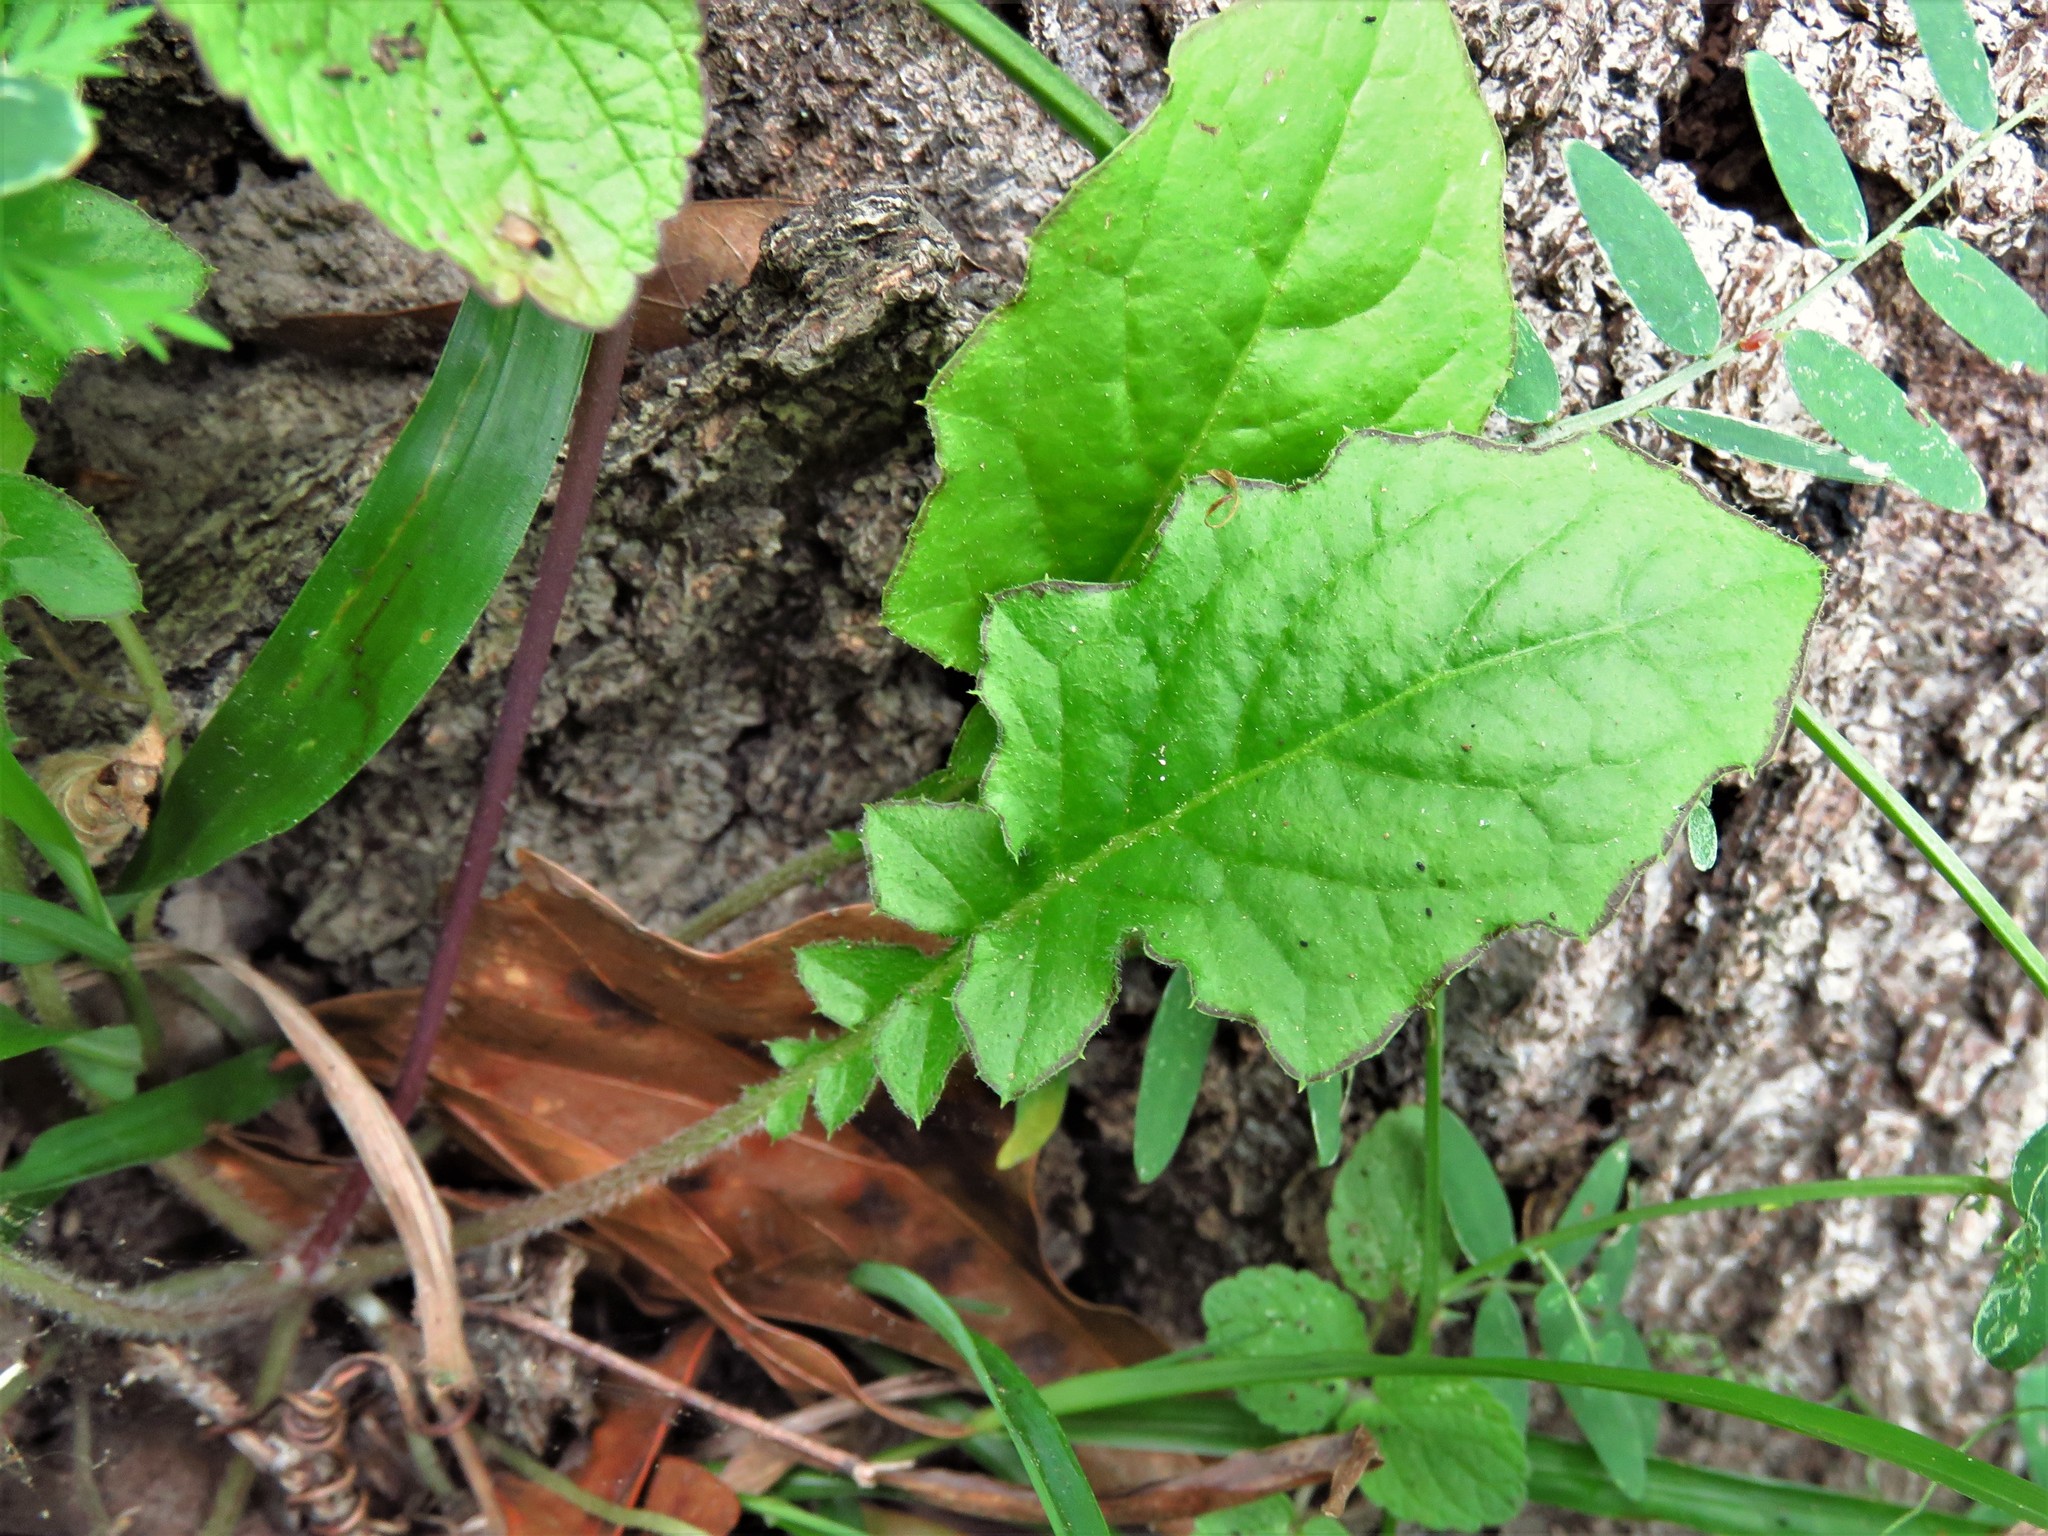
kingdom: Plantae
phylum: Tracheophyta
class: Magnoliopsida
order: Asterales
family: Asteraceae
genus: Youngia
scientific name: Youngia japonica
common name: Oriental false hawksbeard
